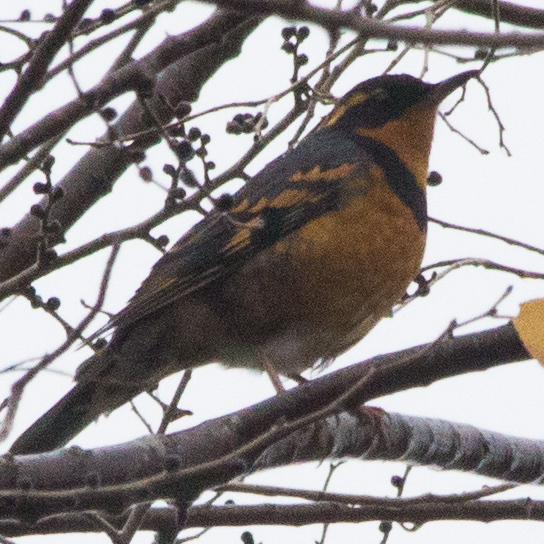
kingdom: Animalia
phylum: Chordata
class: Aves
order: Passeriformes
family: Turdidae
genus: Ixoreus
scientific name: Ixoreus naevius
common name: Varied thrush
